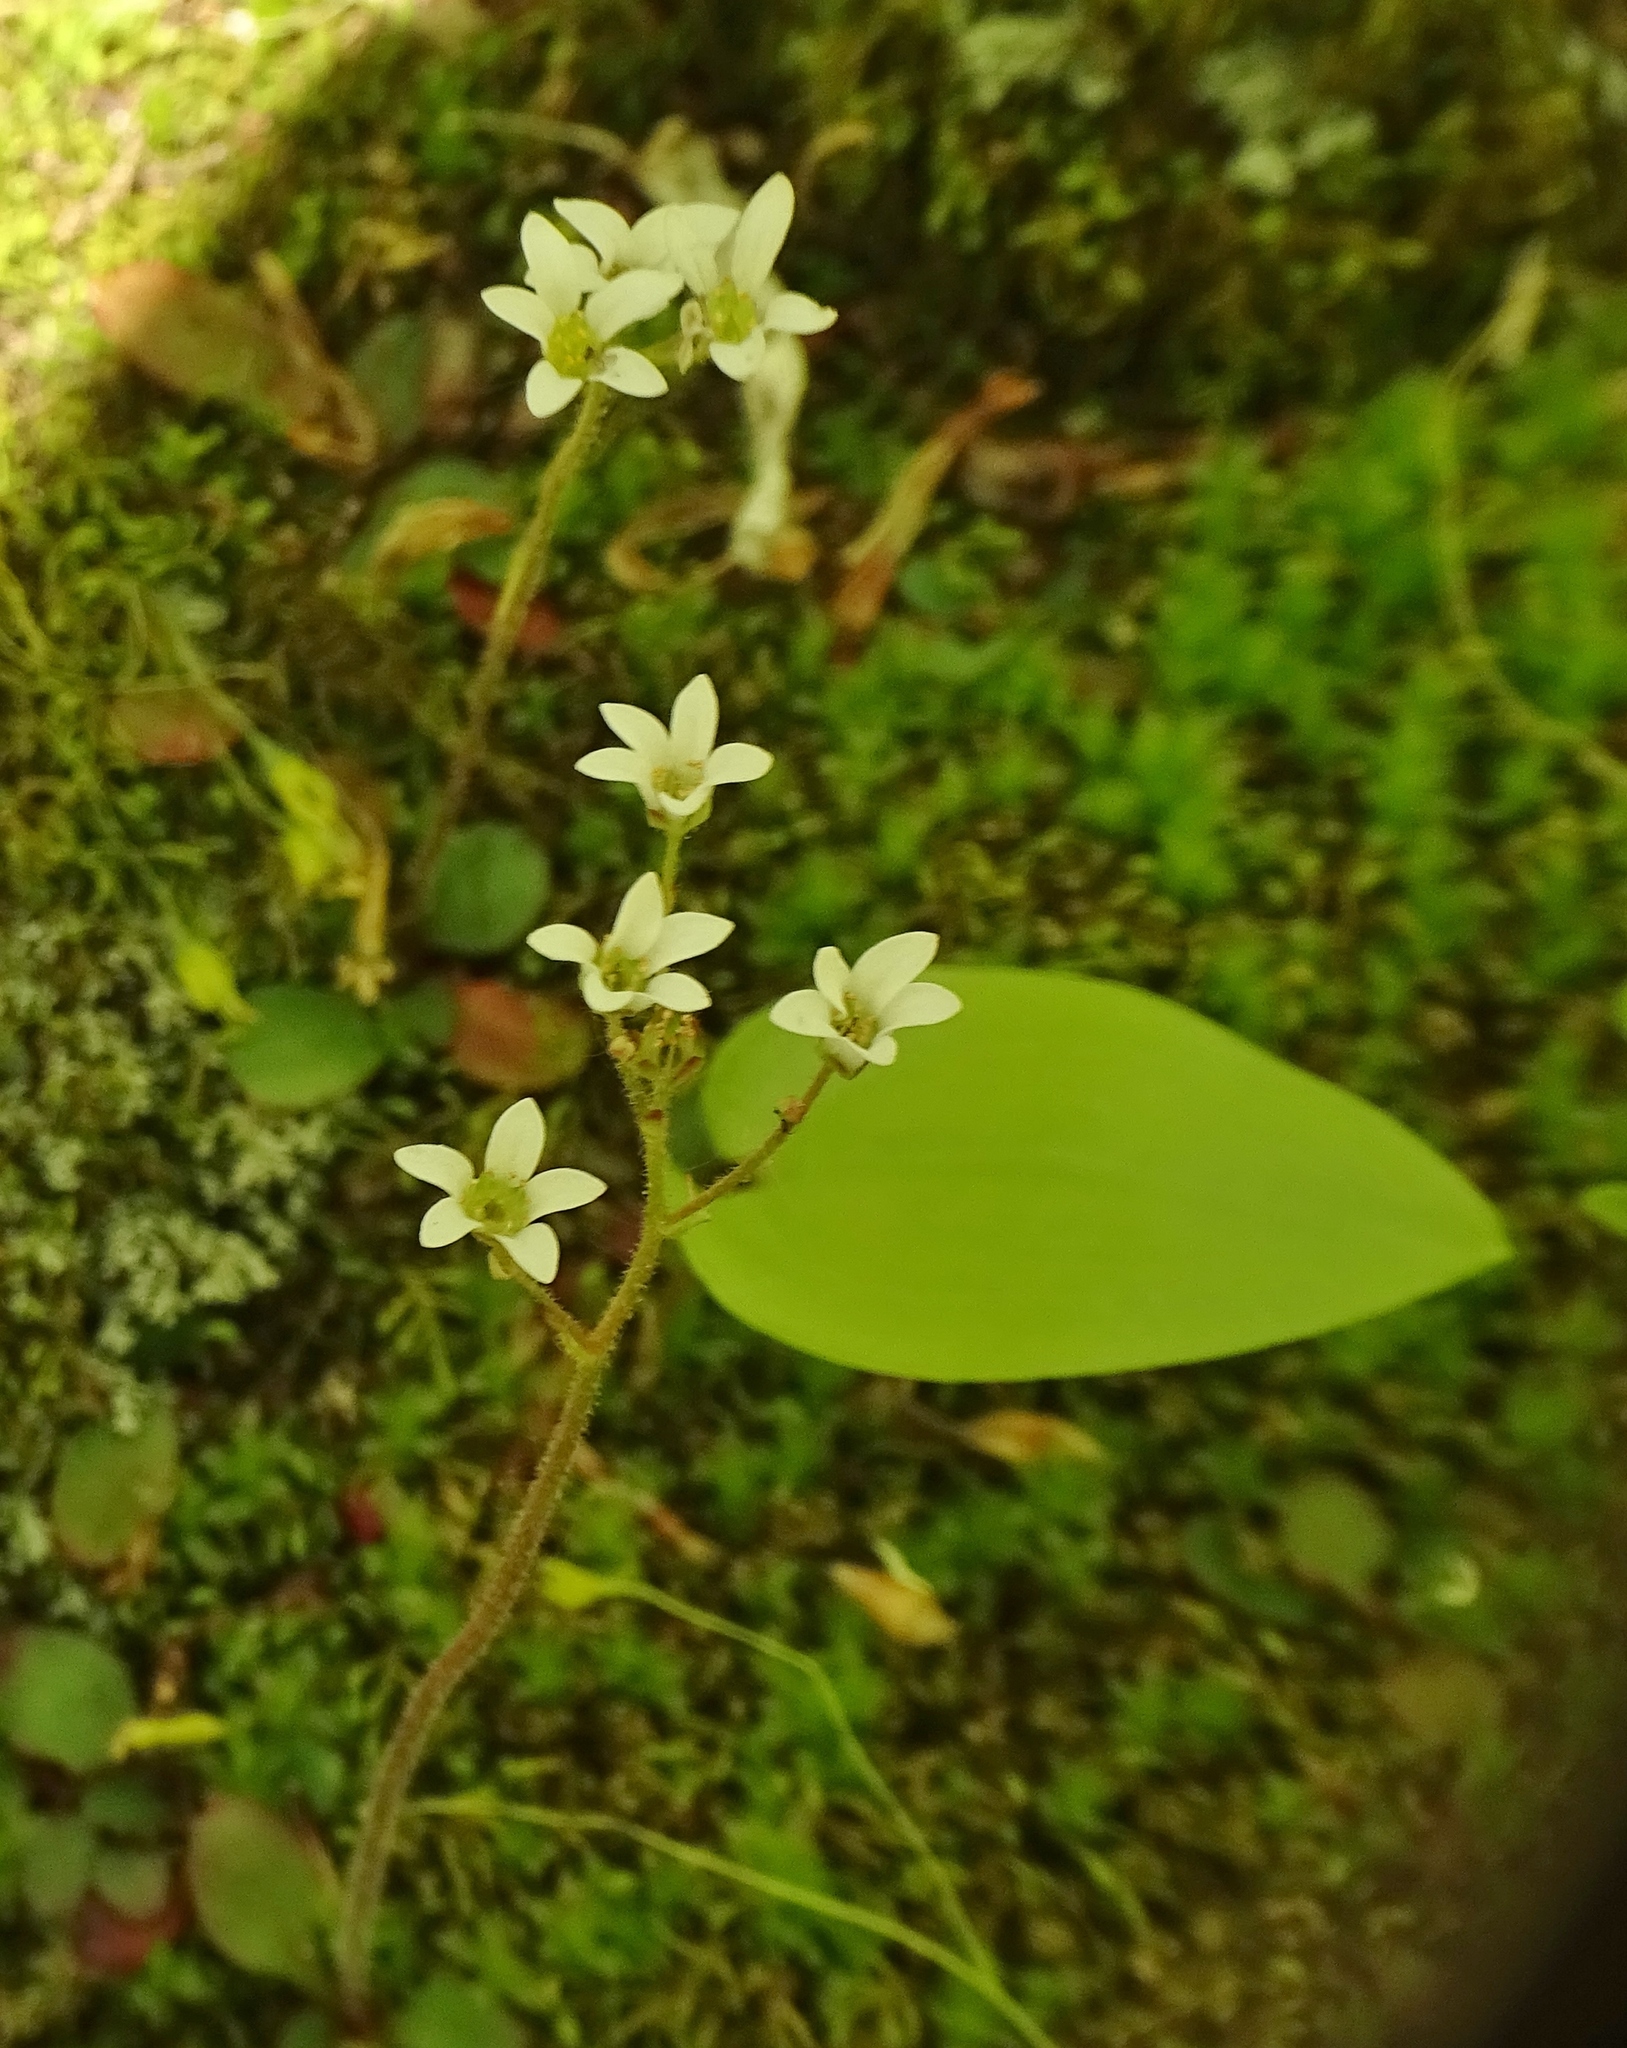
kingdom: Plantae
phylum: Tracheophyta
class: Magnoliopsida
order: Saxifragales
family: Saxifragaceae
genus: Micranthes
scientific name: Micranthes virginiensis
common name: Early saxifrage
